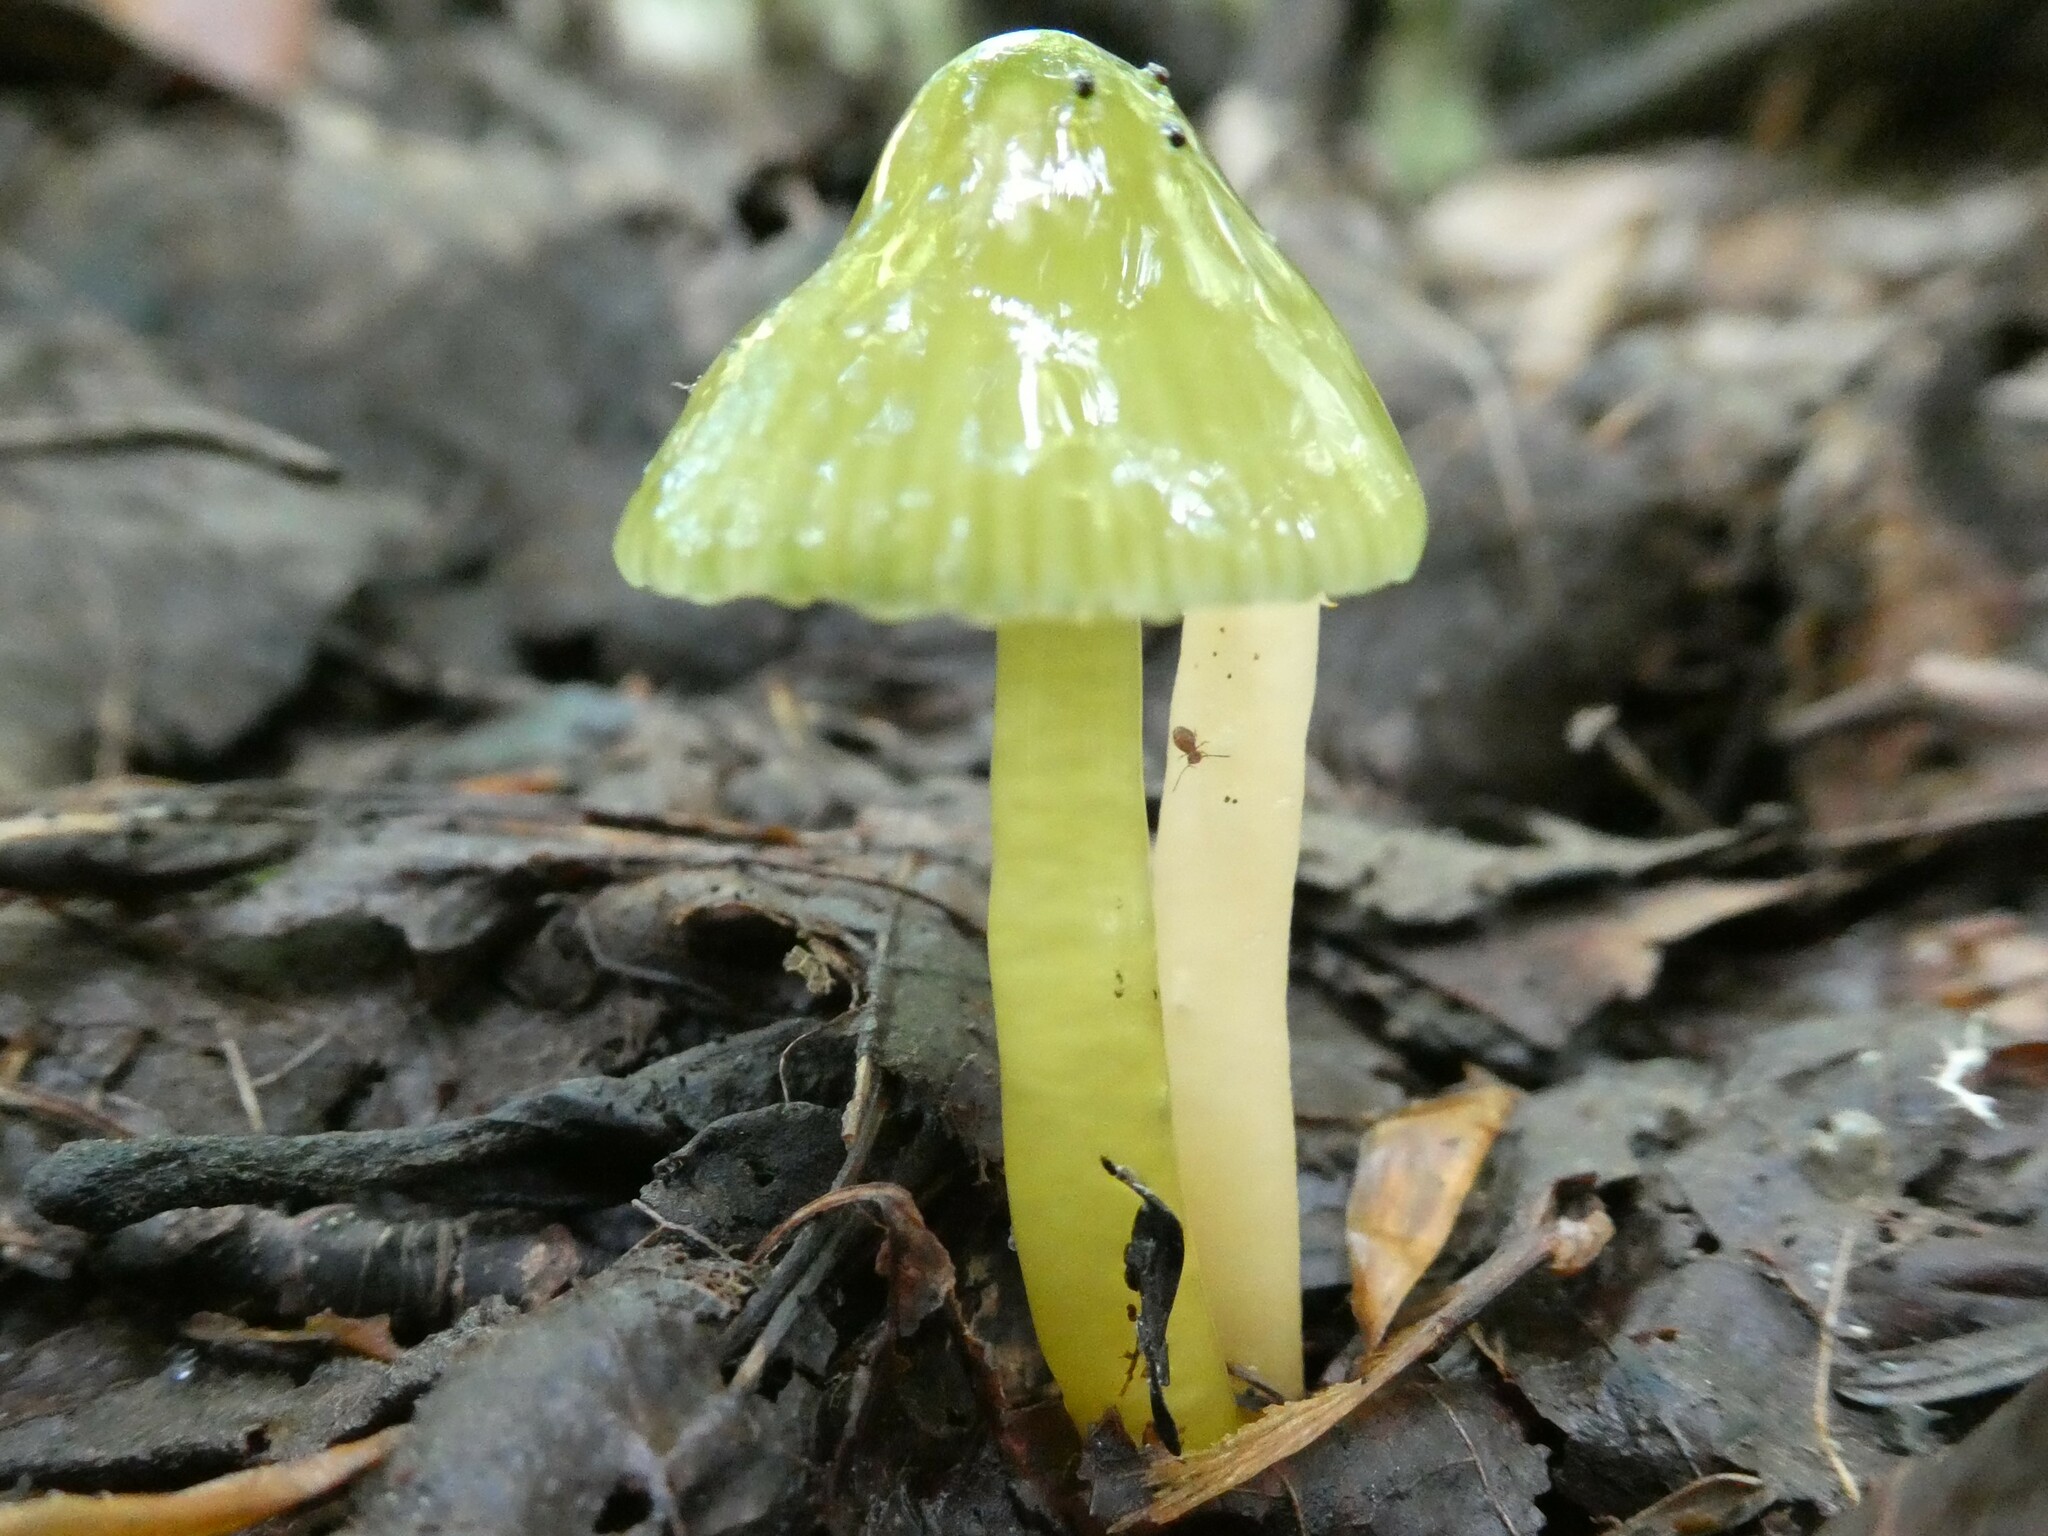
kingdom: Fungi
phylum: Basidiomycota
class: Agaricomycetes
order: Agaricales
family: Hygrophoraceae
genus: Gliophorus
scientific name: Gliophorus psittacinus
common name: Parrot wax-cap
